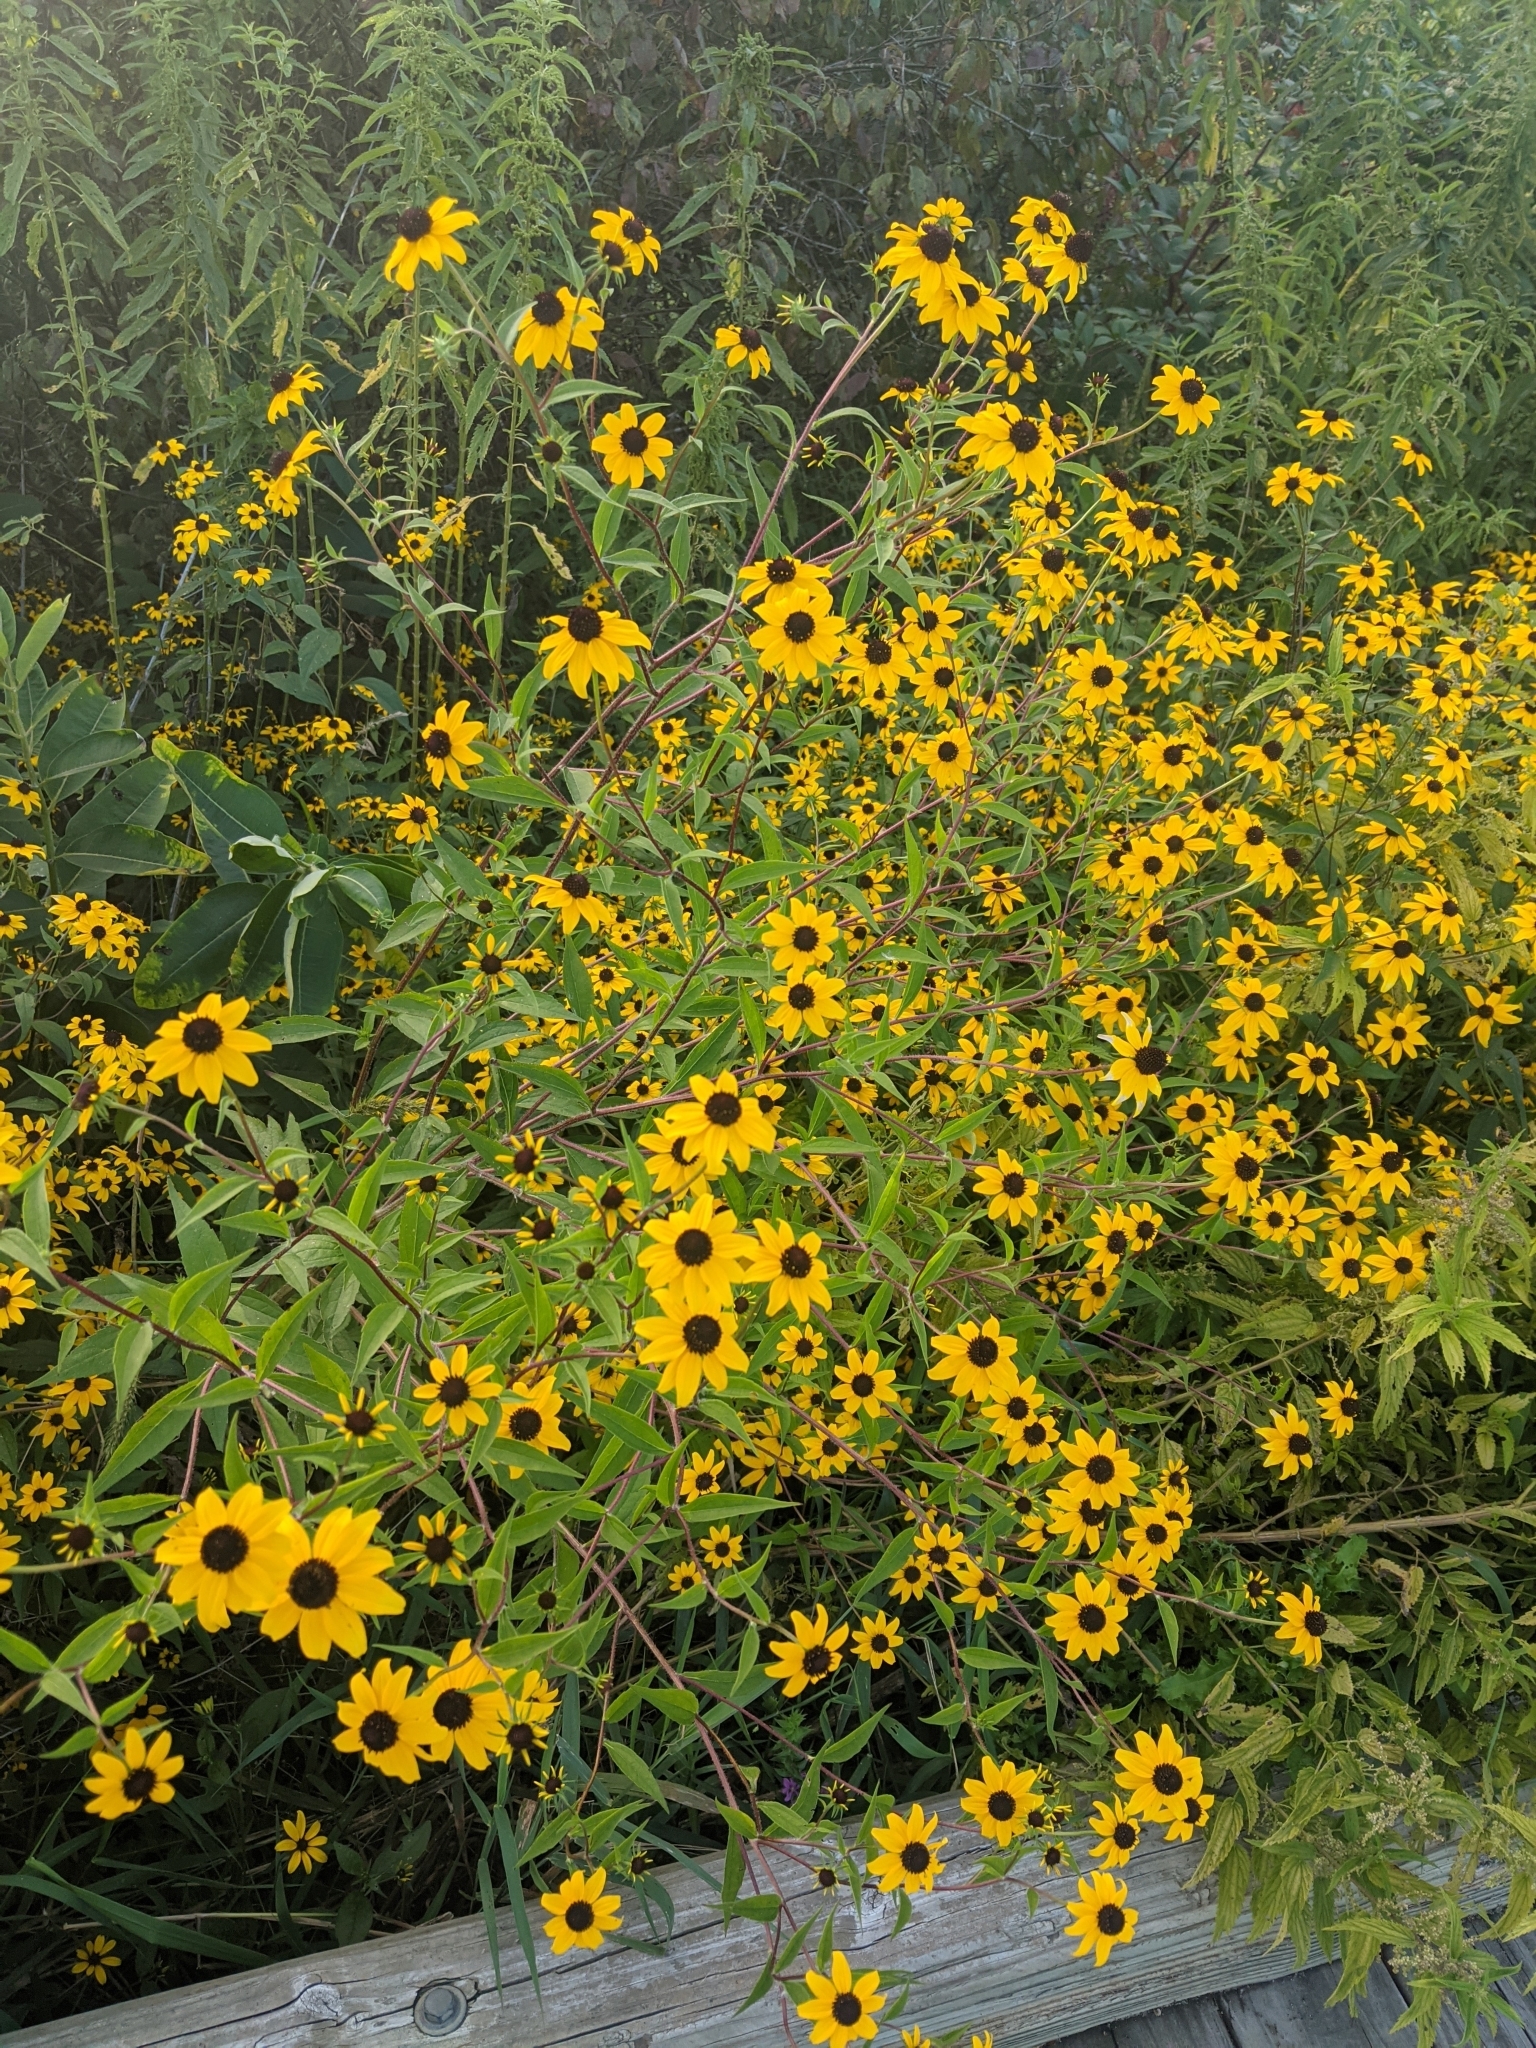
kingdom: Plantae
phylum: Tracheophyta
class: Magnoliopsida
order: Asterales
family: Asteraceae
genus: Rudbeckia
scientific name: Rudbeckia triloba
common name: Thin-leaved coneflower
